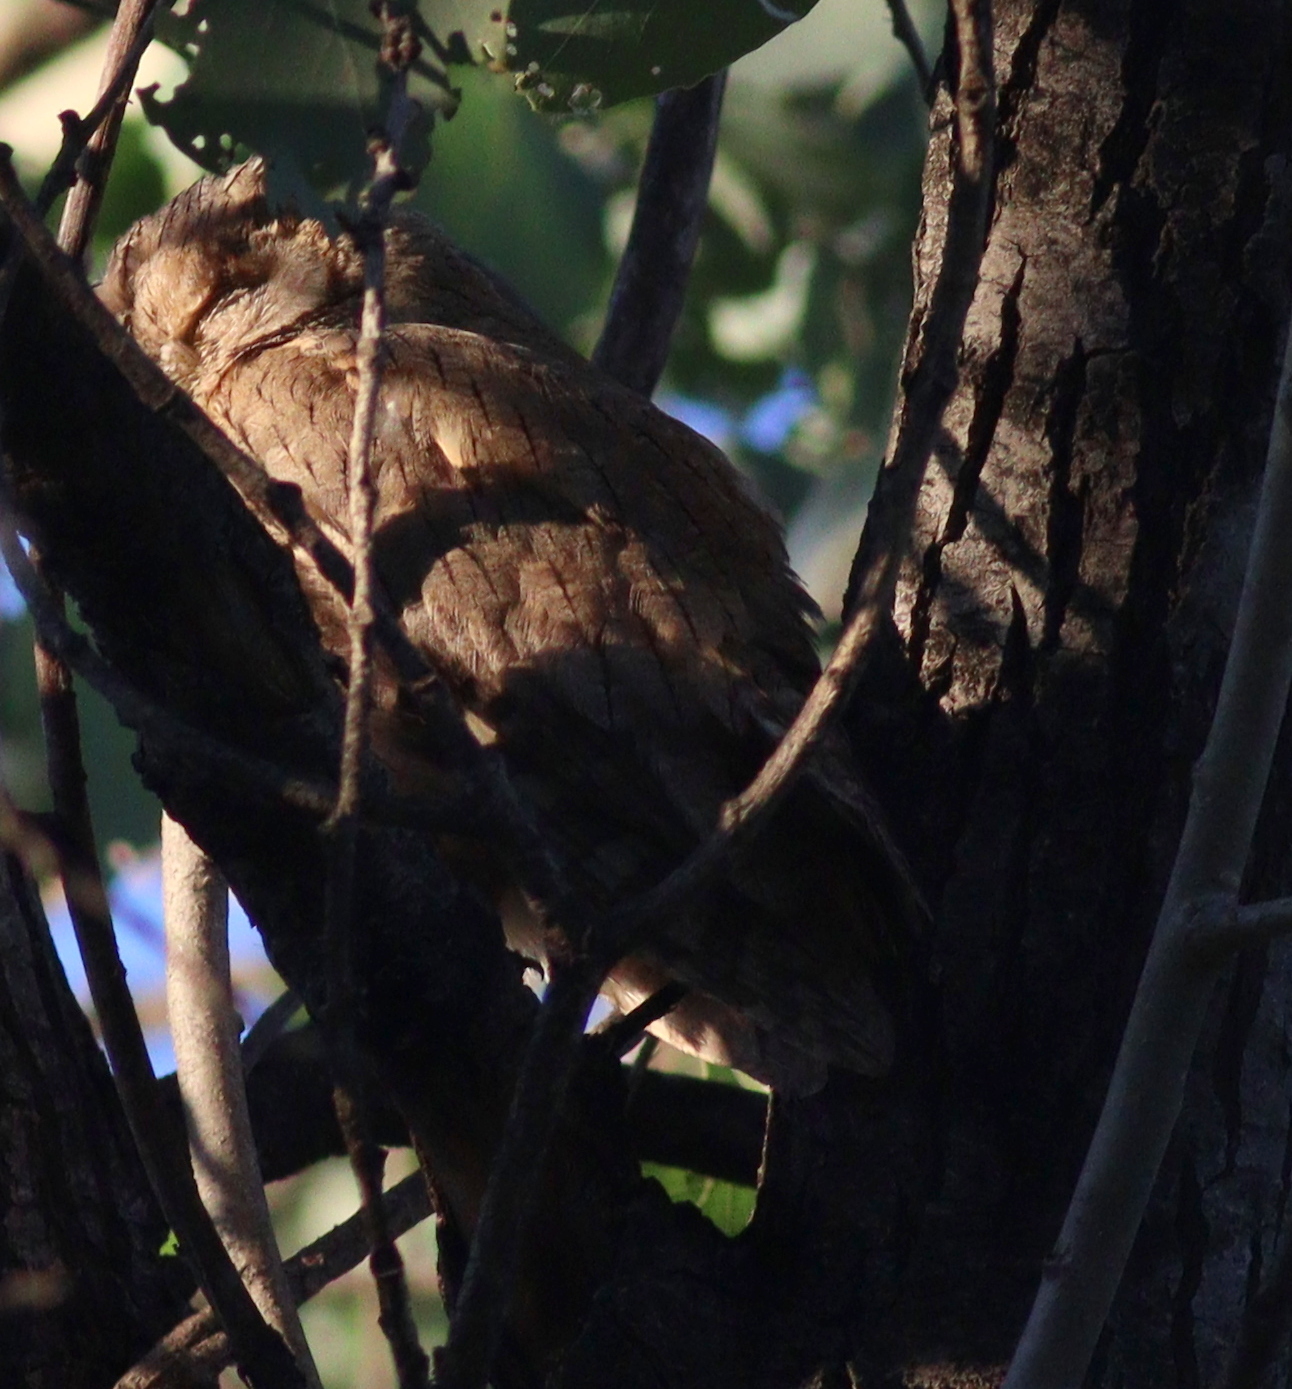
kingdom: Animalia
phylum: Chordata
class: Aves
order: Strigiformes
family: Strigidae
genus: Otus
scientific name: Otus brucei
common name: Pallid scops owl
